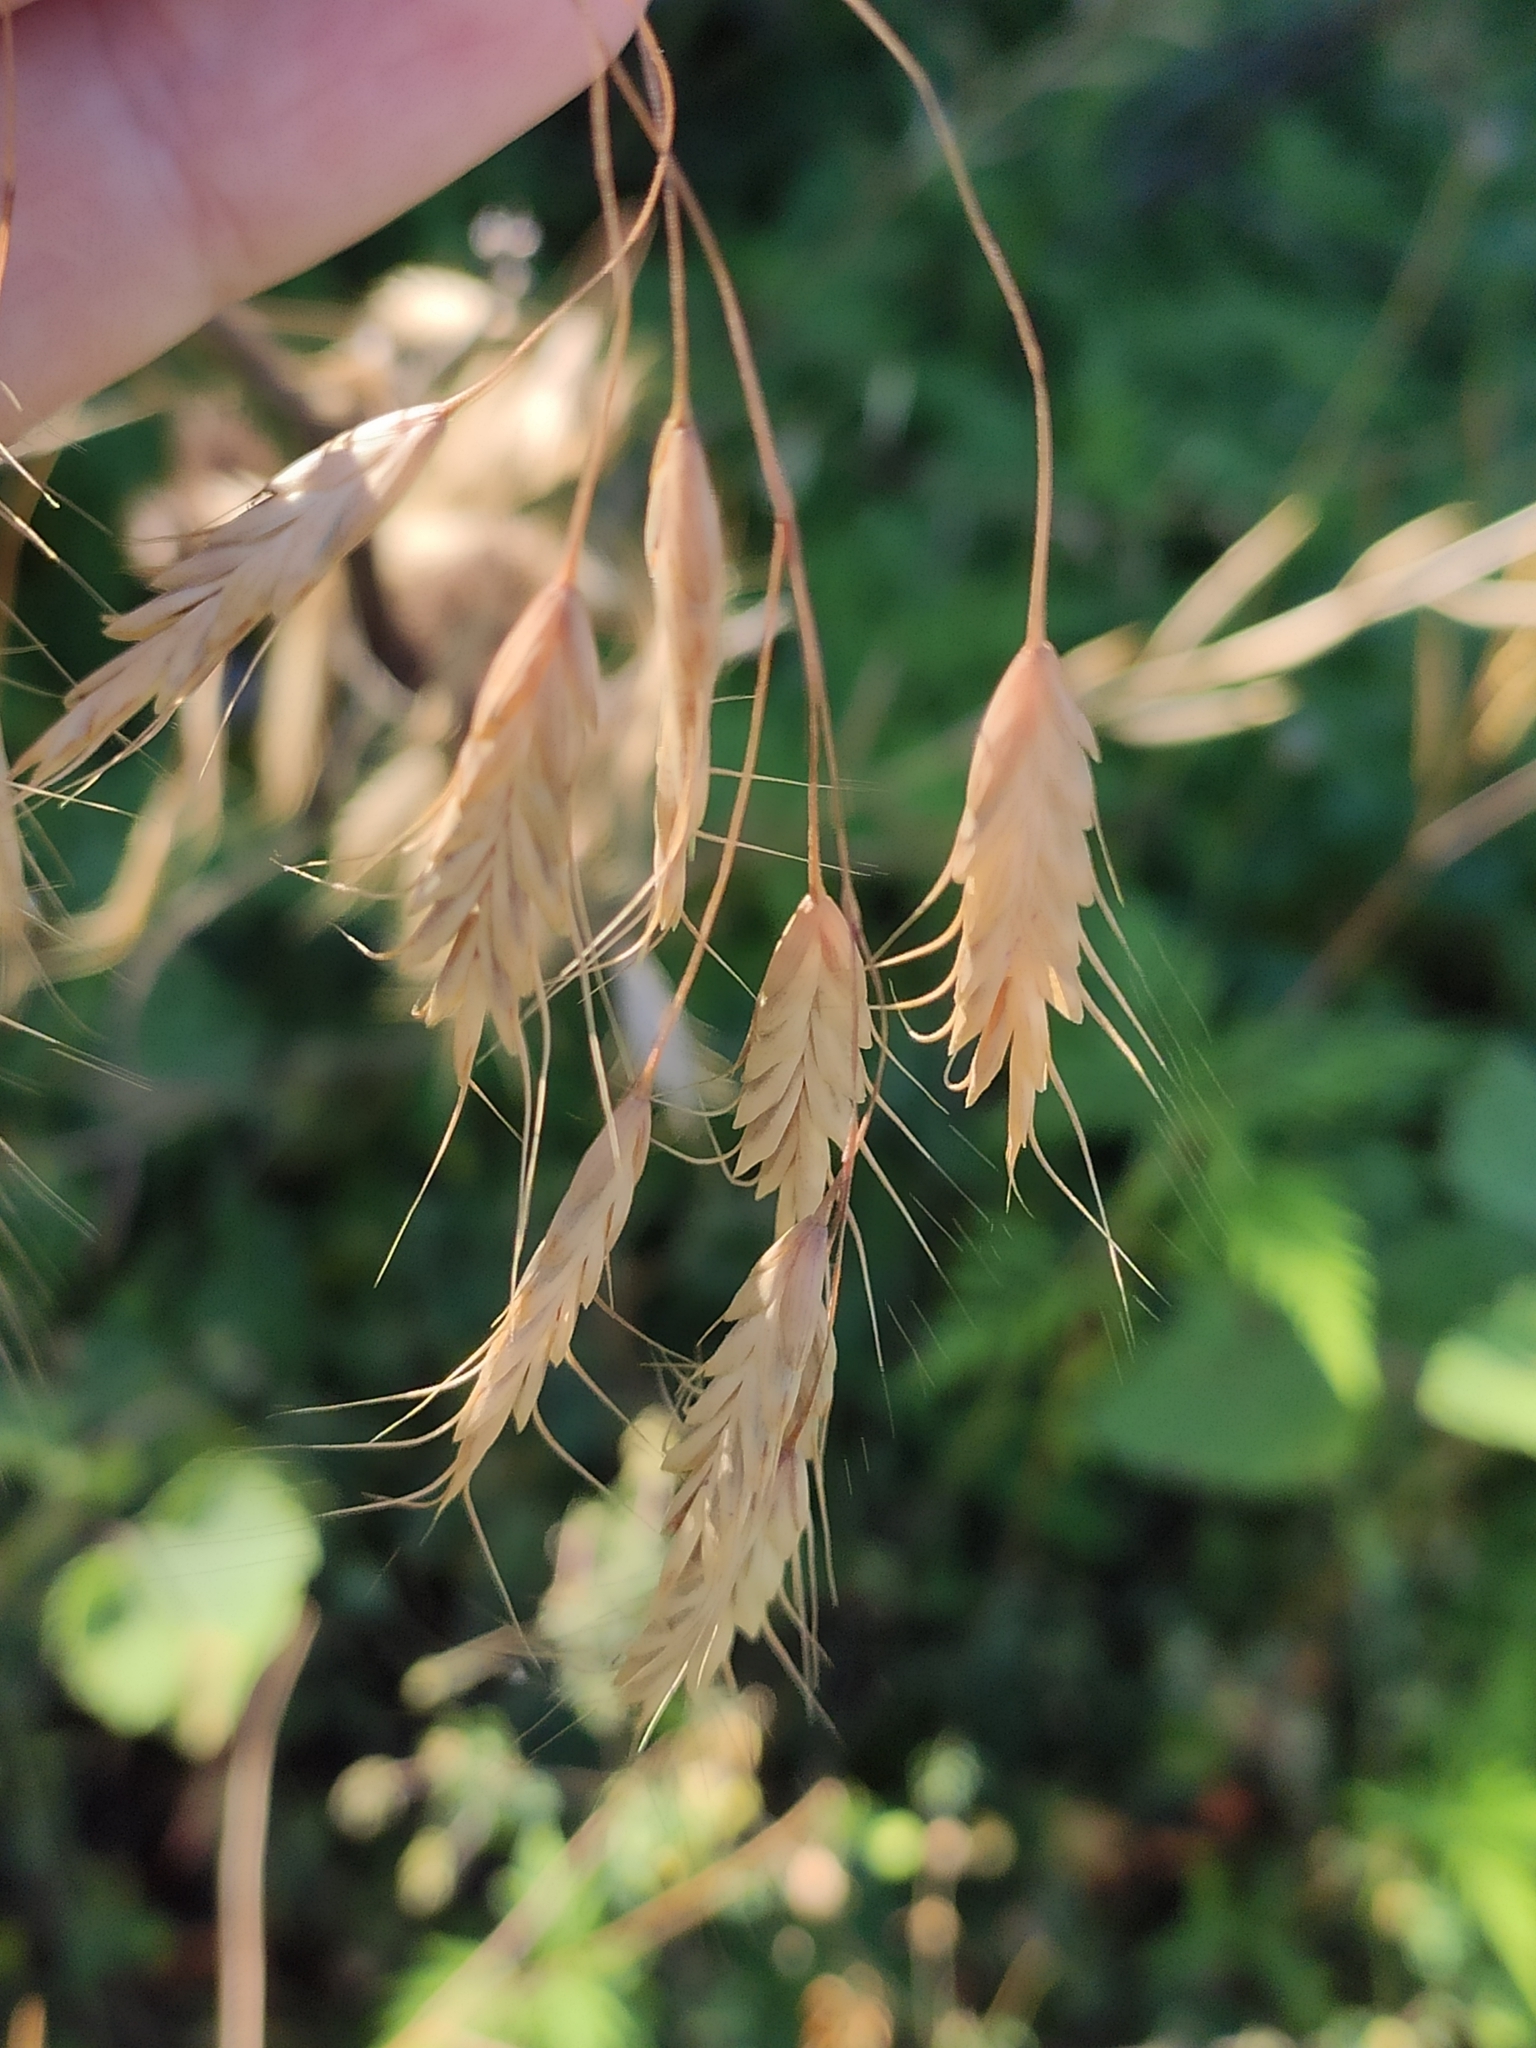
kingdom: Plantae
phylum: Tracheophyta
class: Liliopsida
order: Poales
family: Poaceae
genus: Bromus
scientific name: Bromus japonicus
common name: Japanese brome
